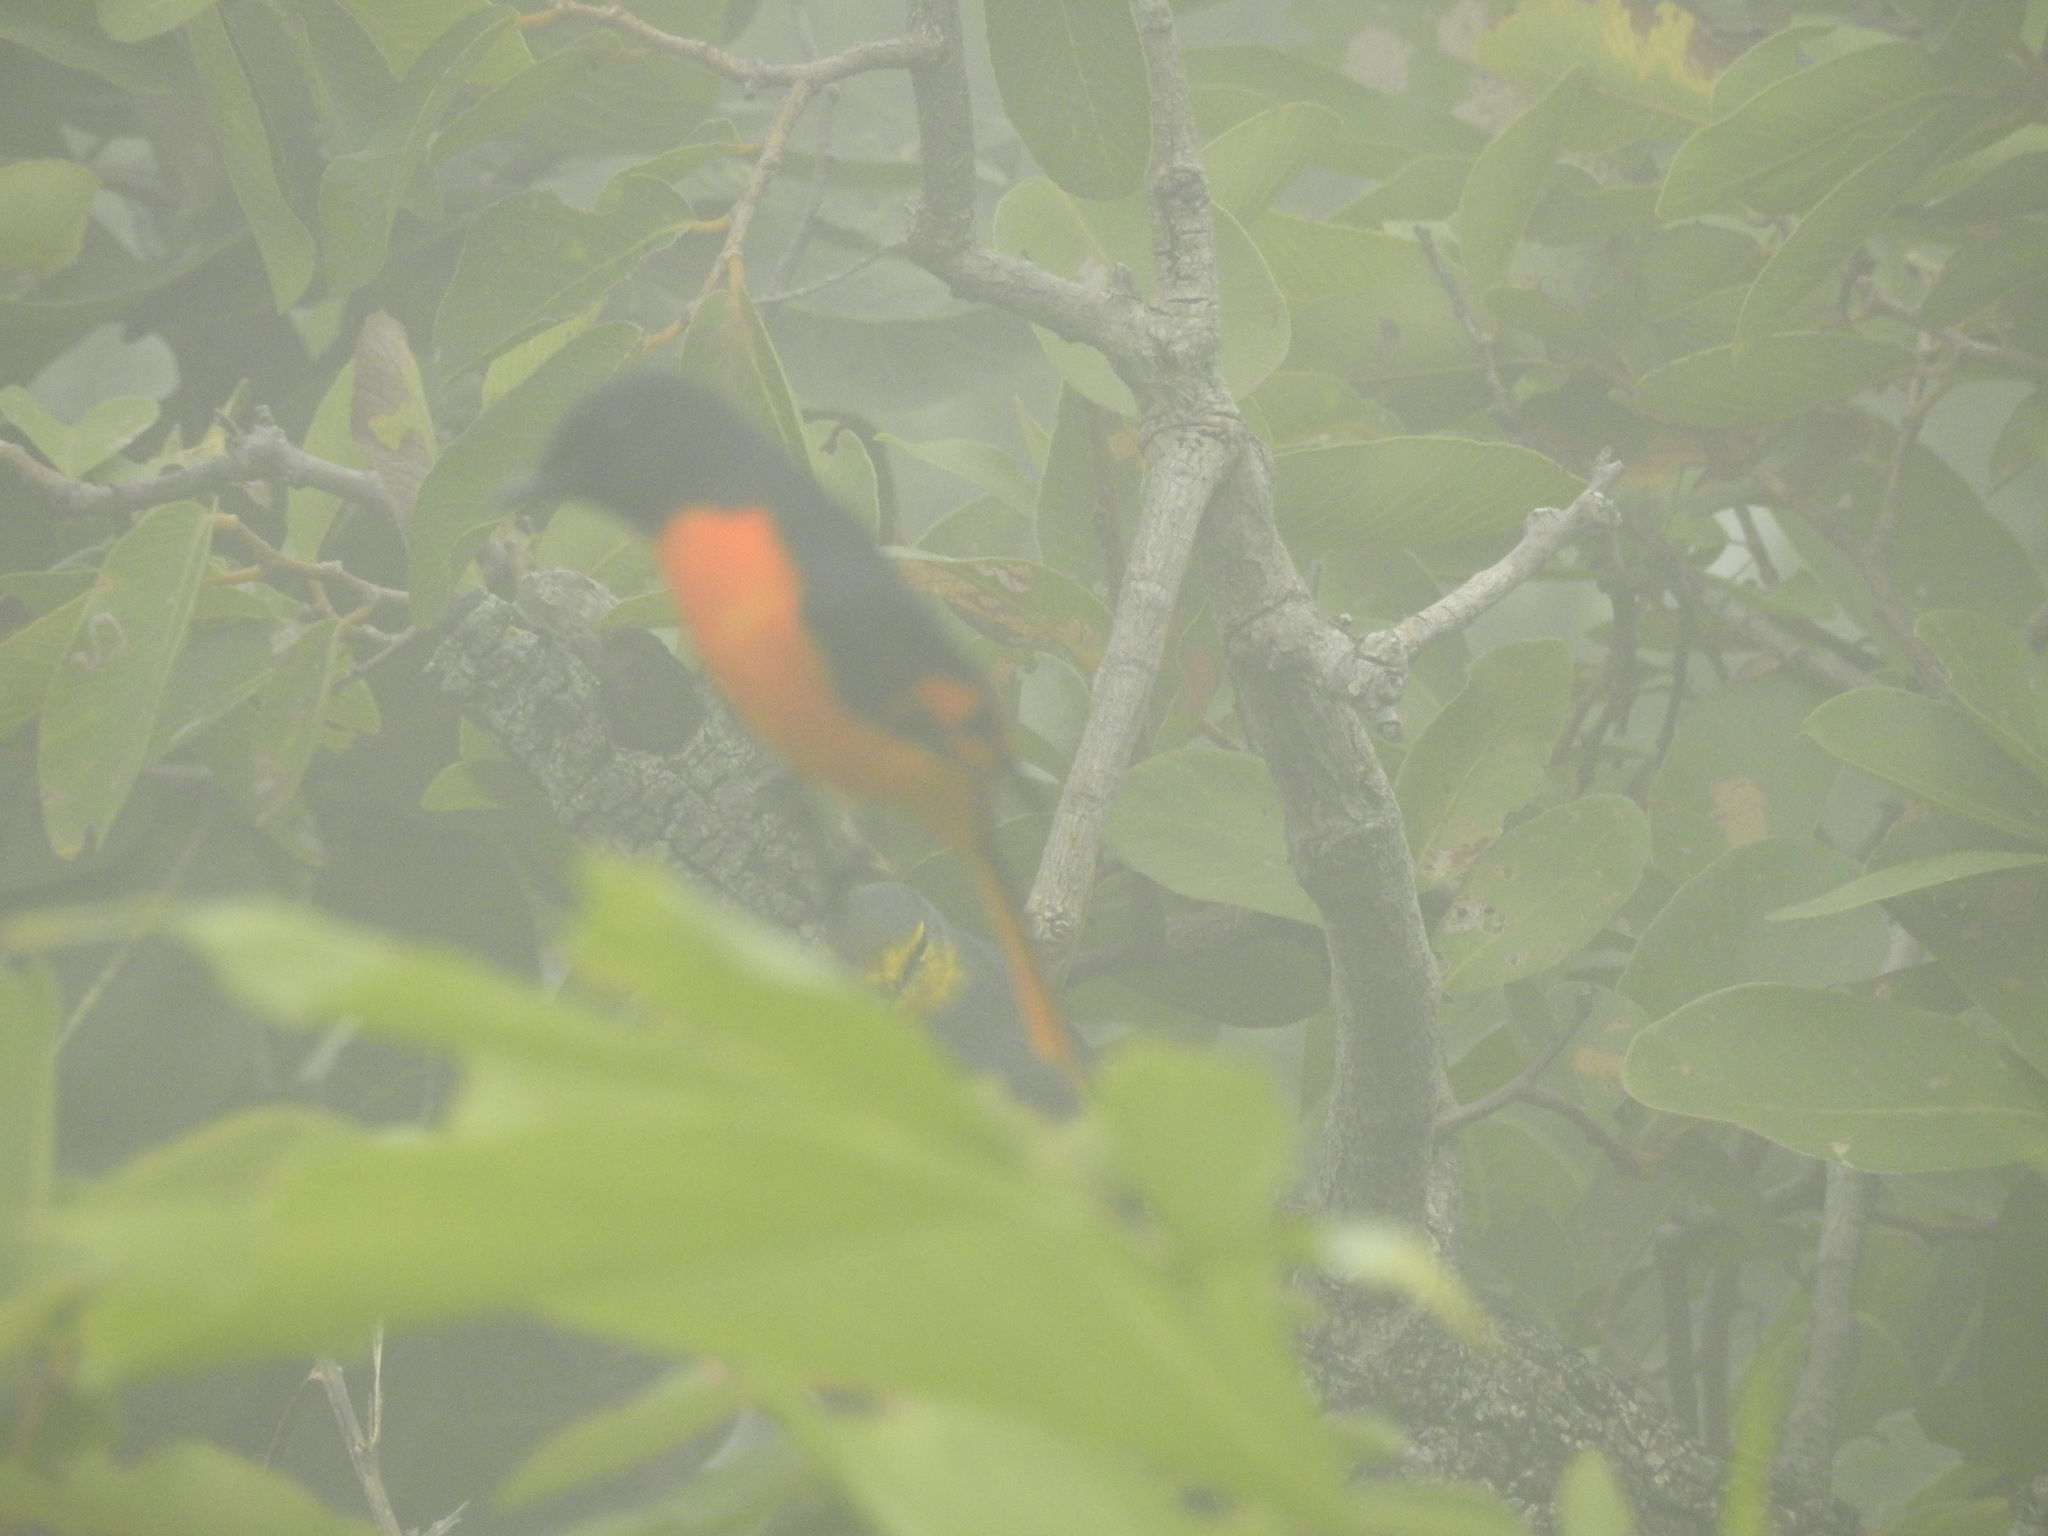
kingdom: Animalia
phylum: Chordata
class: Aves
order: Passeriformes
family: Campephagidae
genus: Pericrocotus
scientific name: Pericrocotus flammeus
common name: Orange minivet
